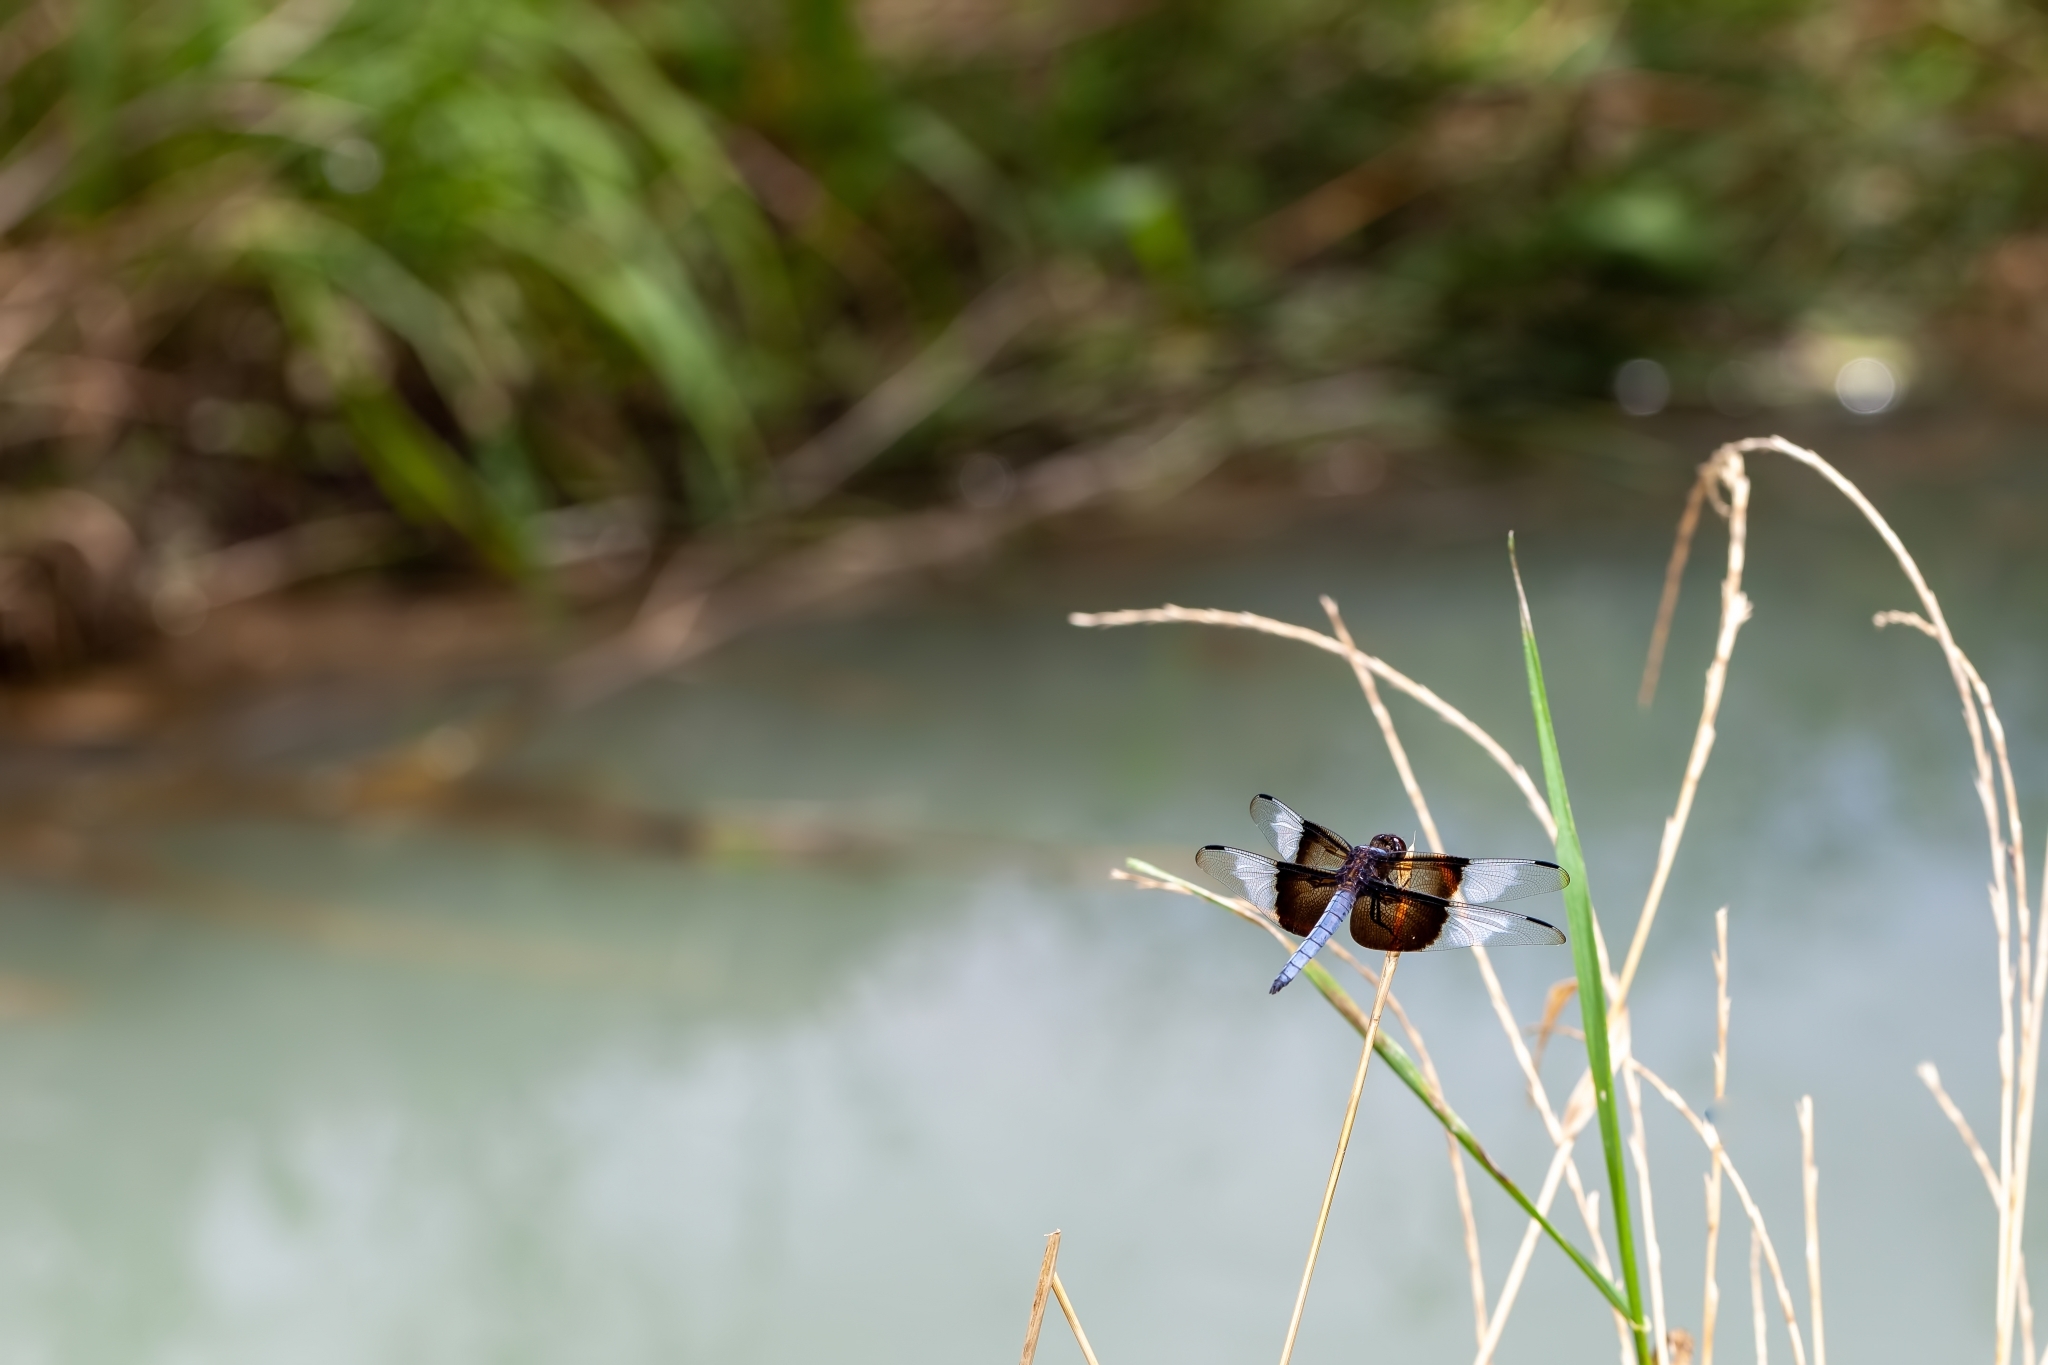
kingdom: Animalia
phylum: Arthropoda
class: Insecta
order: Odonata
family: Libellulidae
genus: Libellula
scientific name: Libellula luctuosa
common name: Widow skimmer
